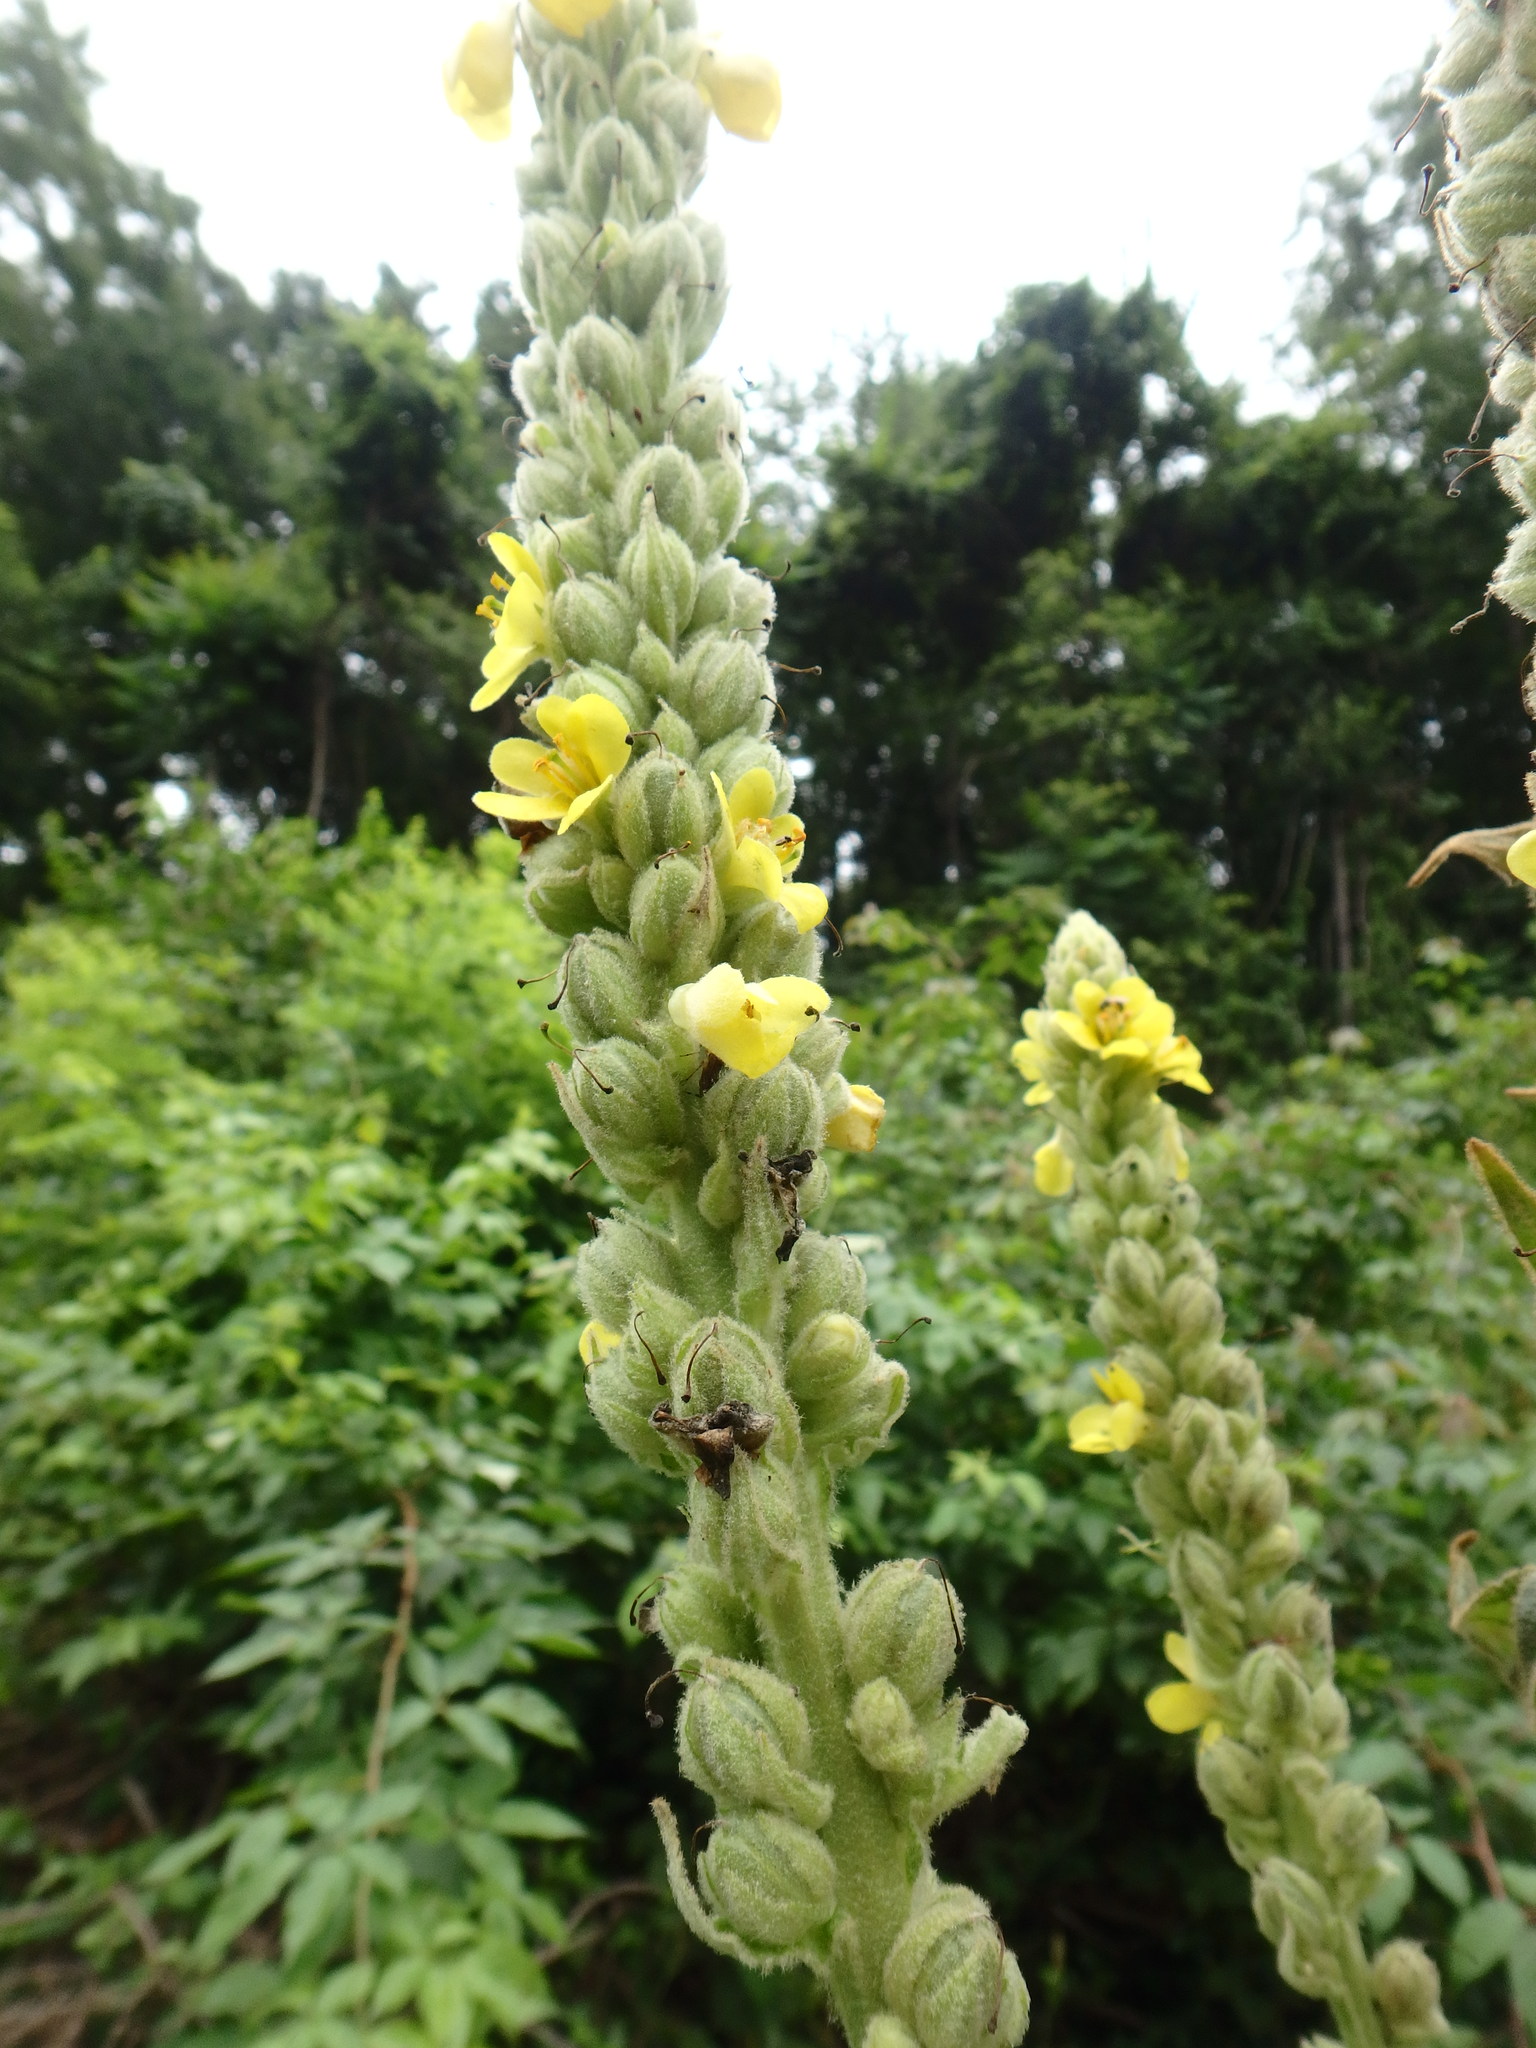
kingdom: Plantae
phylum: Tracheophyta
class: Magnoliopsida
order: Lamiales
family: Scrophulariaceae
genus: Verbascum
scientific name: Verbascum thapsus
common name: Common mullein
